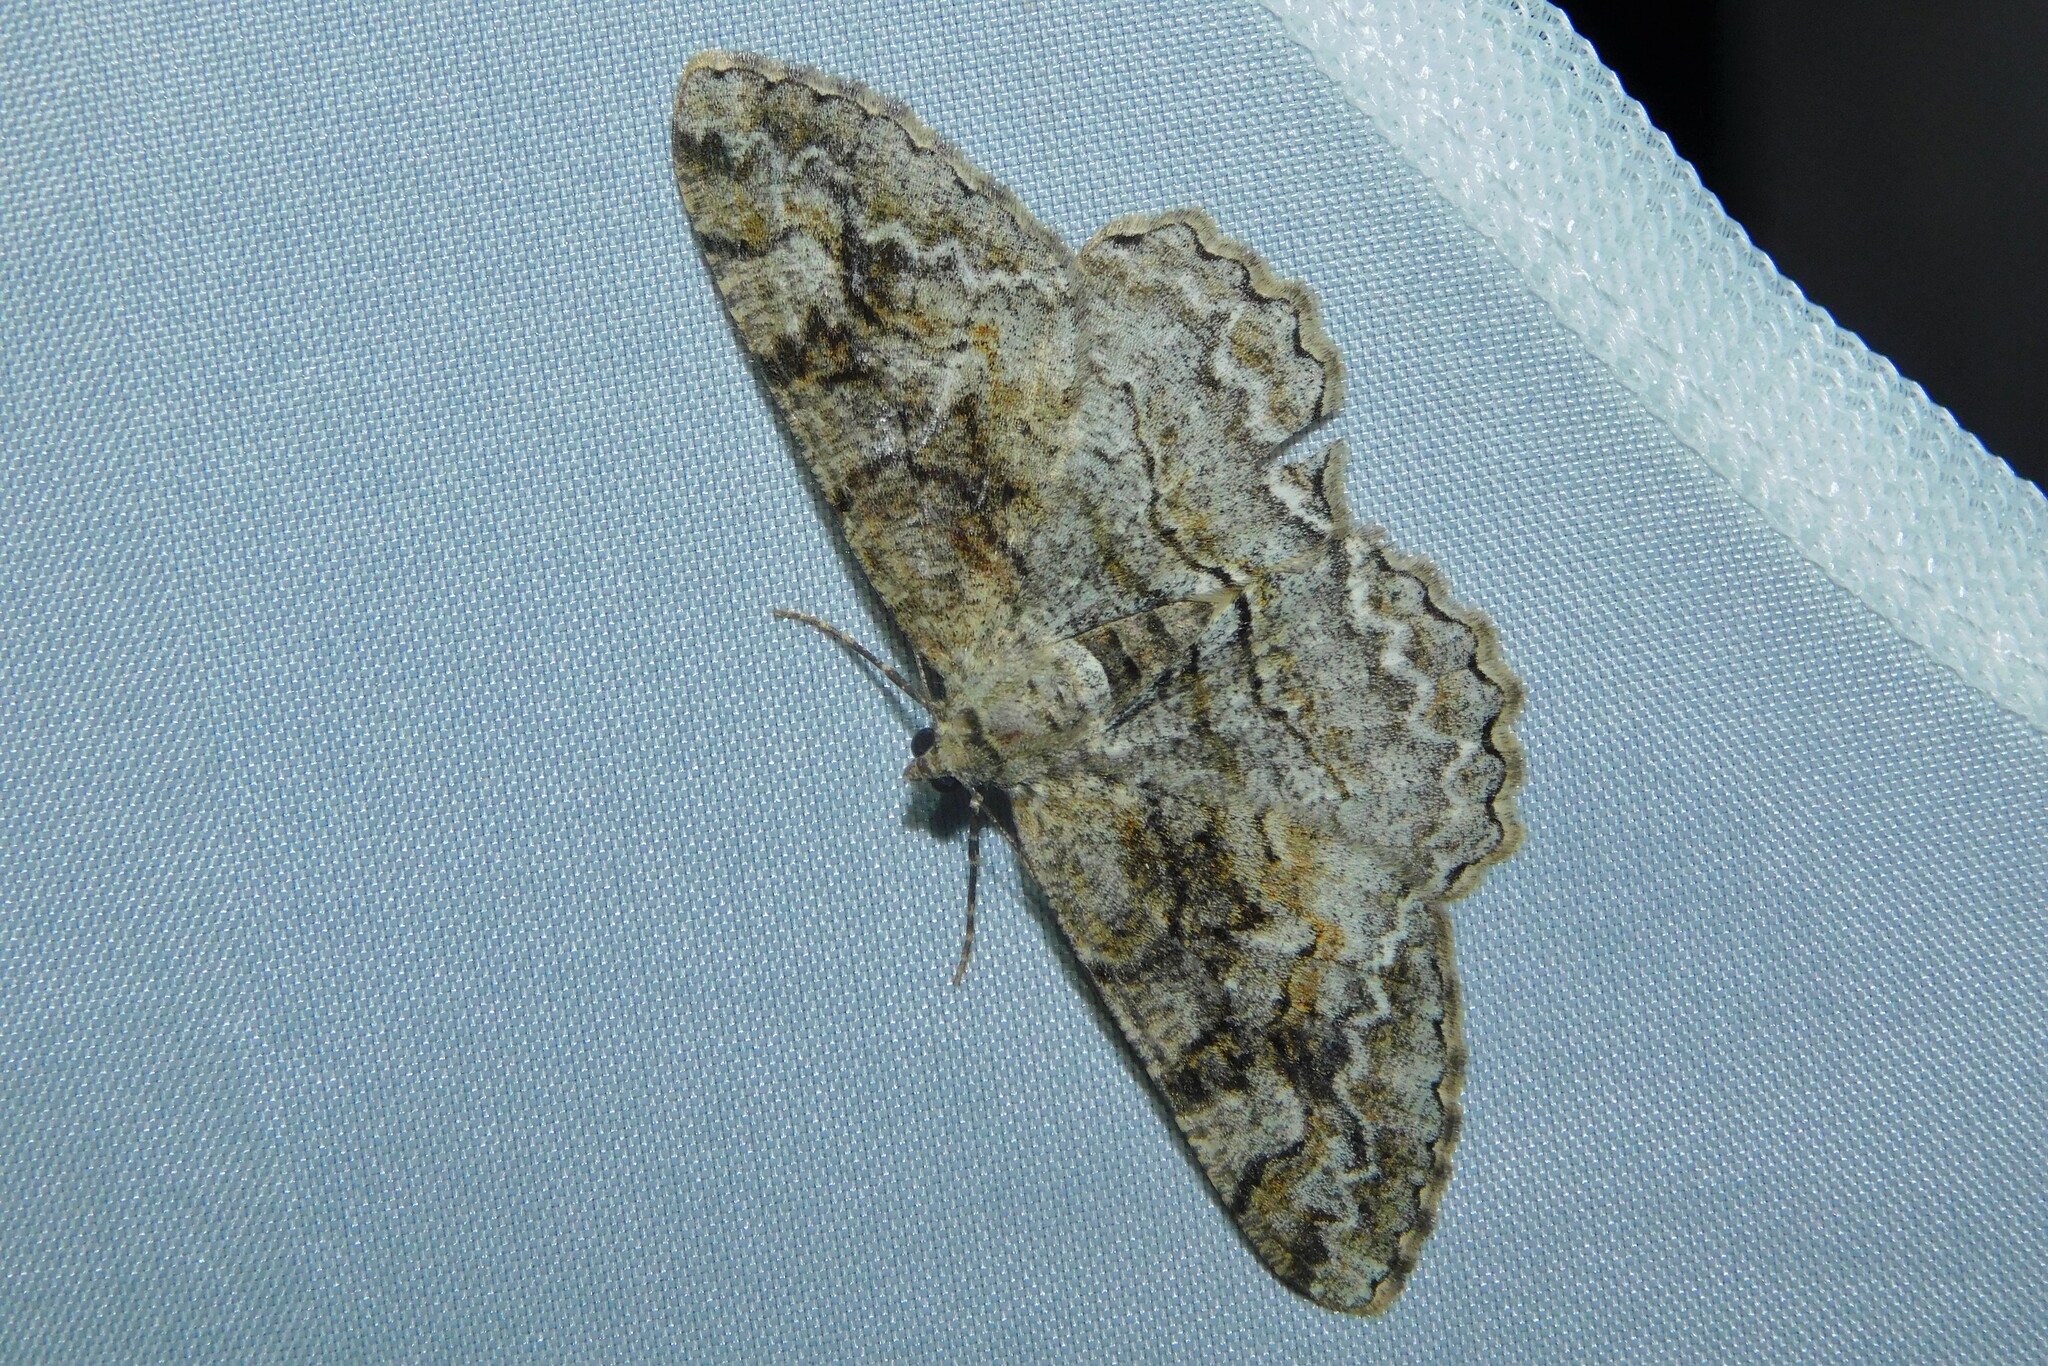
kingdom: Animalia
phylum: Arthropoda
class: Insecta
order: Lepidoptera
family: Geometridae
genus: Alcis
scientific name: Alcis repandata
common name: Mottled beauty
